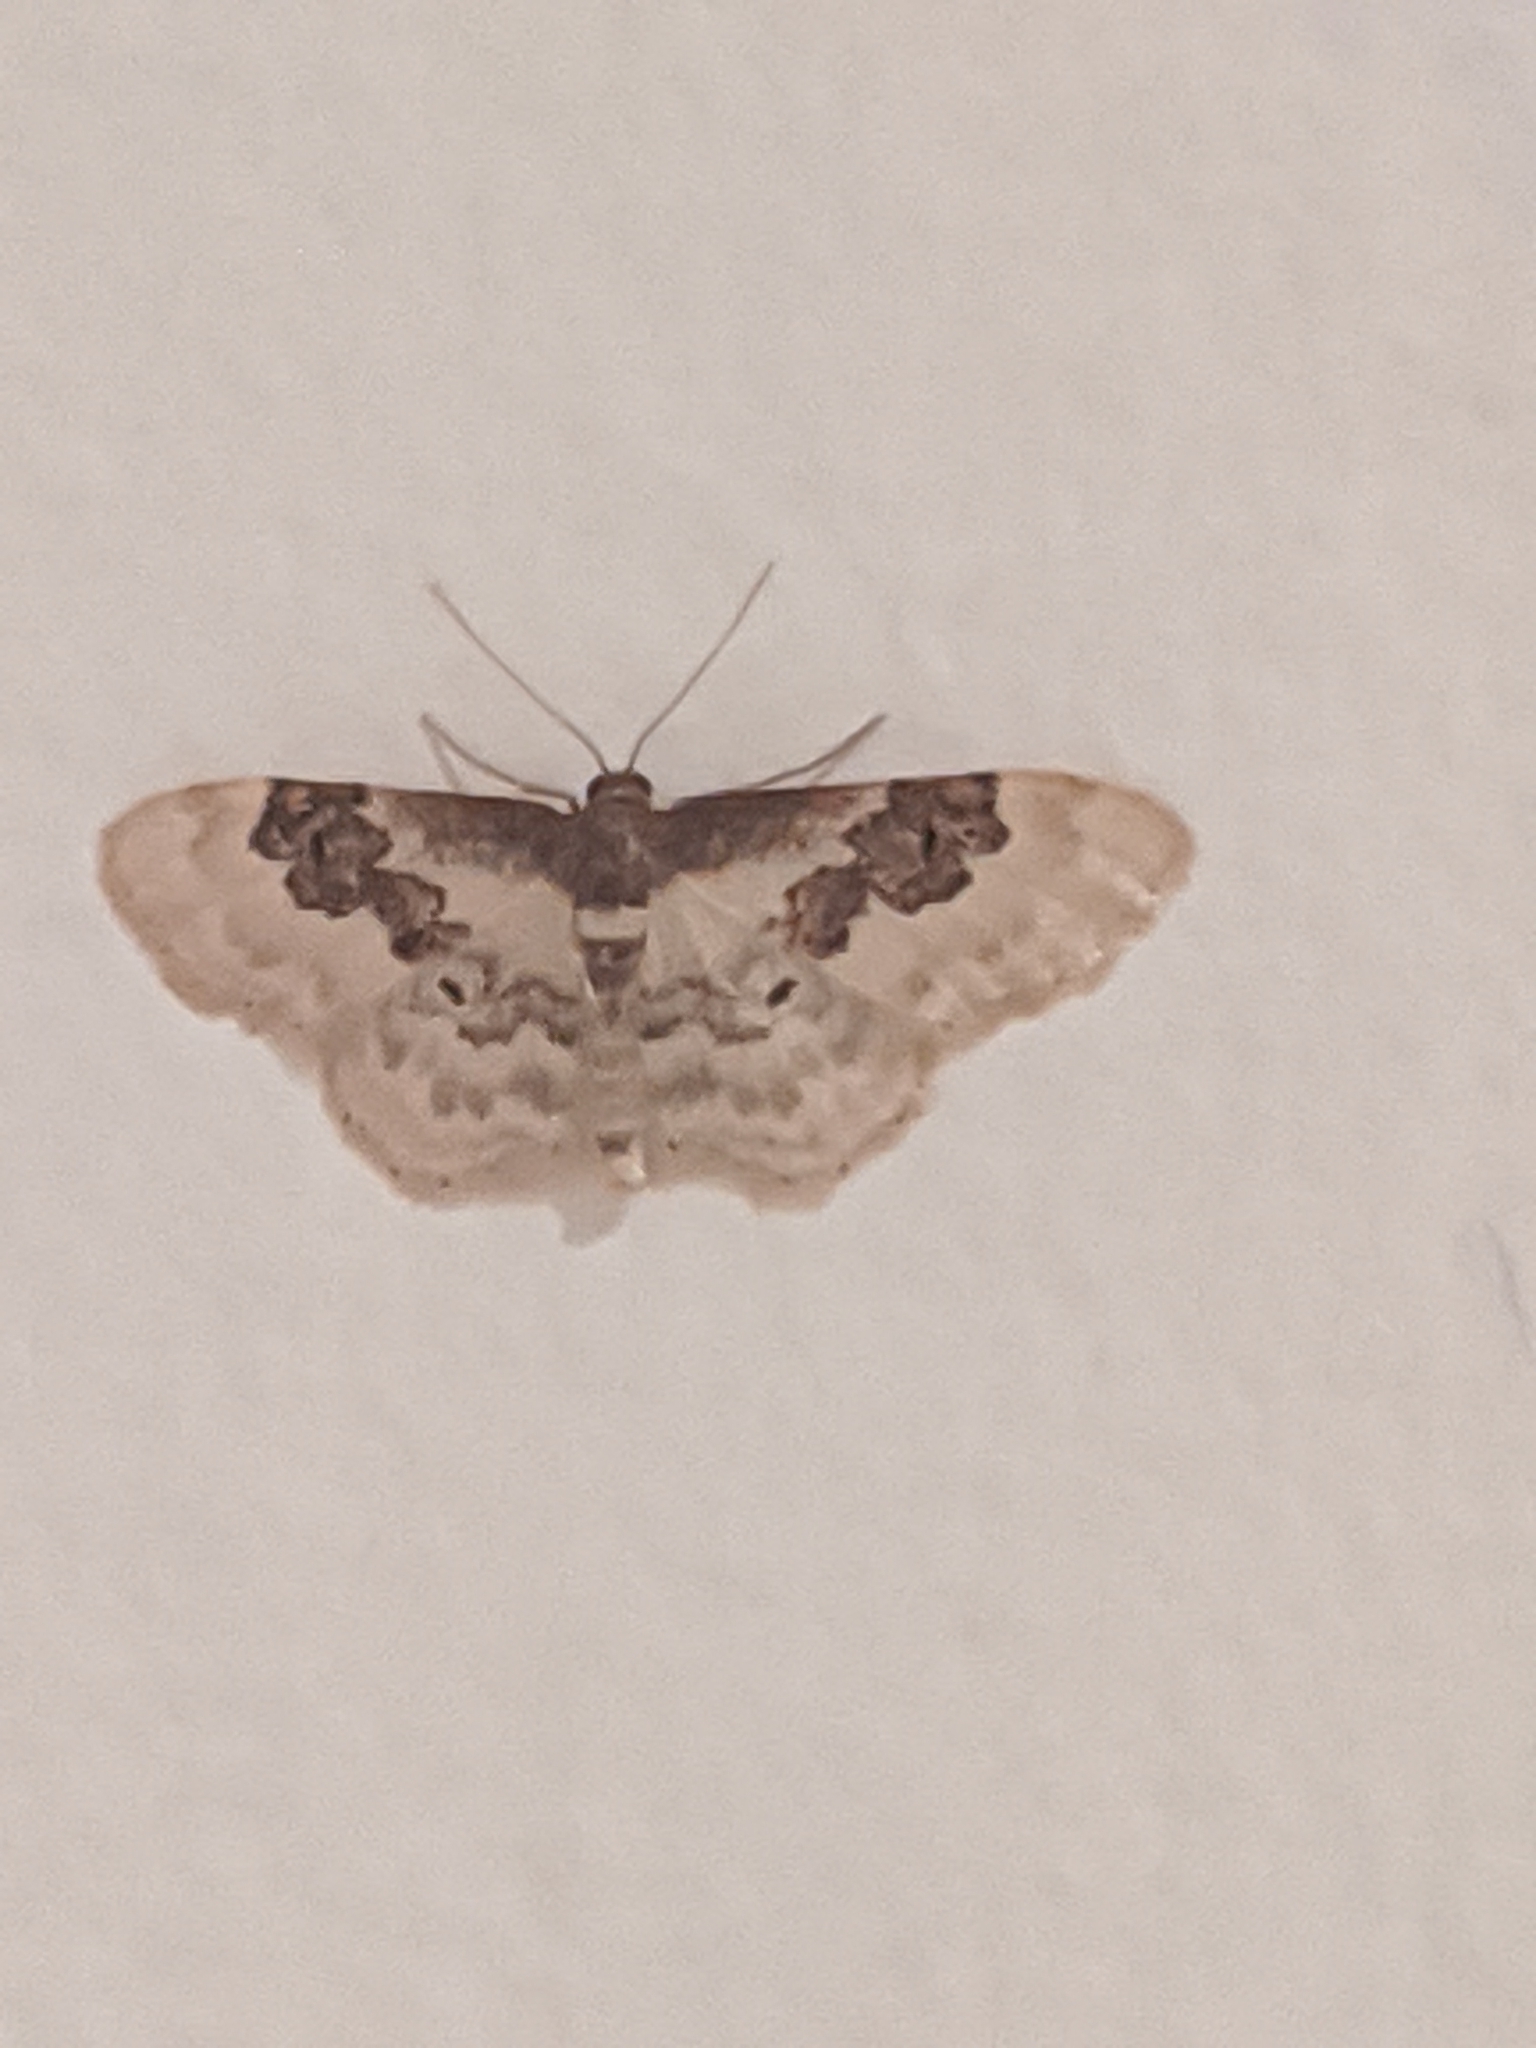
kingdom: Animalia
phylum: Arthropoda
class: Insecta
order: Lepidoptera
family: Geometridae
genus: Idaea
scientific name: Idaea rusticata
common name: Least carpet
